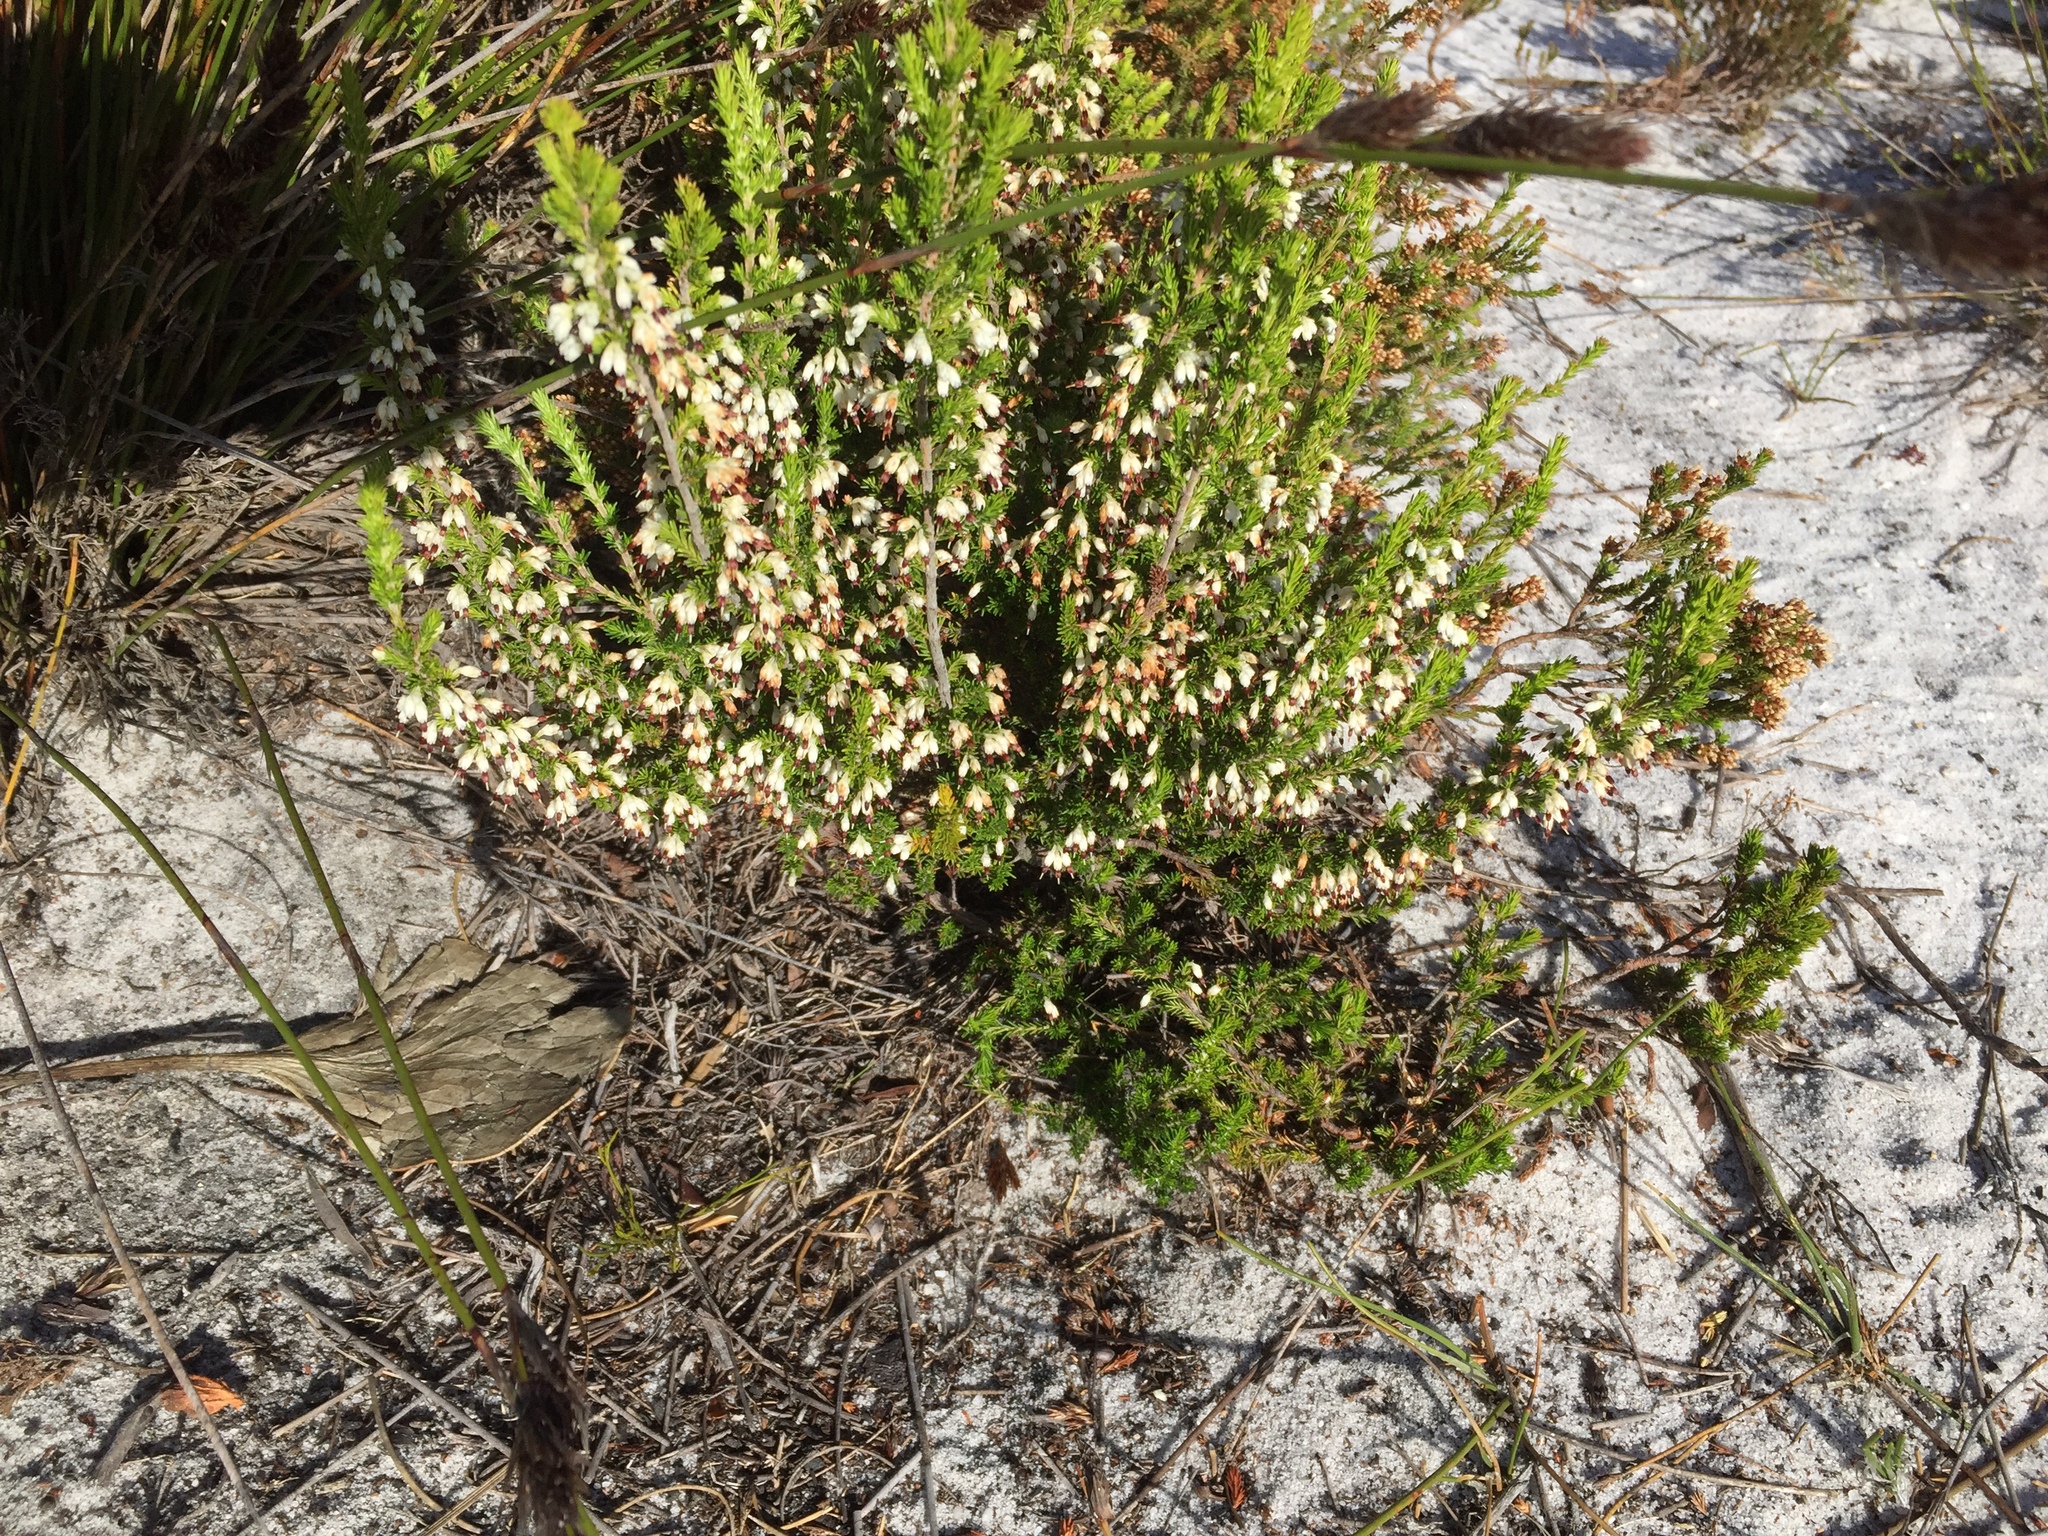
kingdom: Plantae
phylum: Tracheophyta
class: Magnoliopsida
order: Ericales
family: Ericaceae
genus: Erica
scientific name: Erica imbricata
